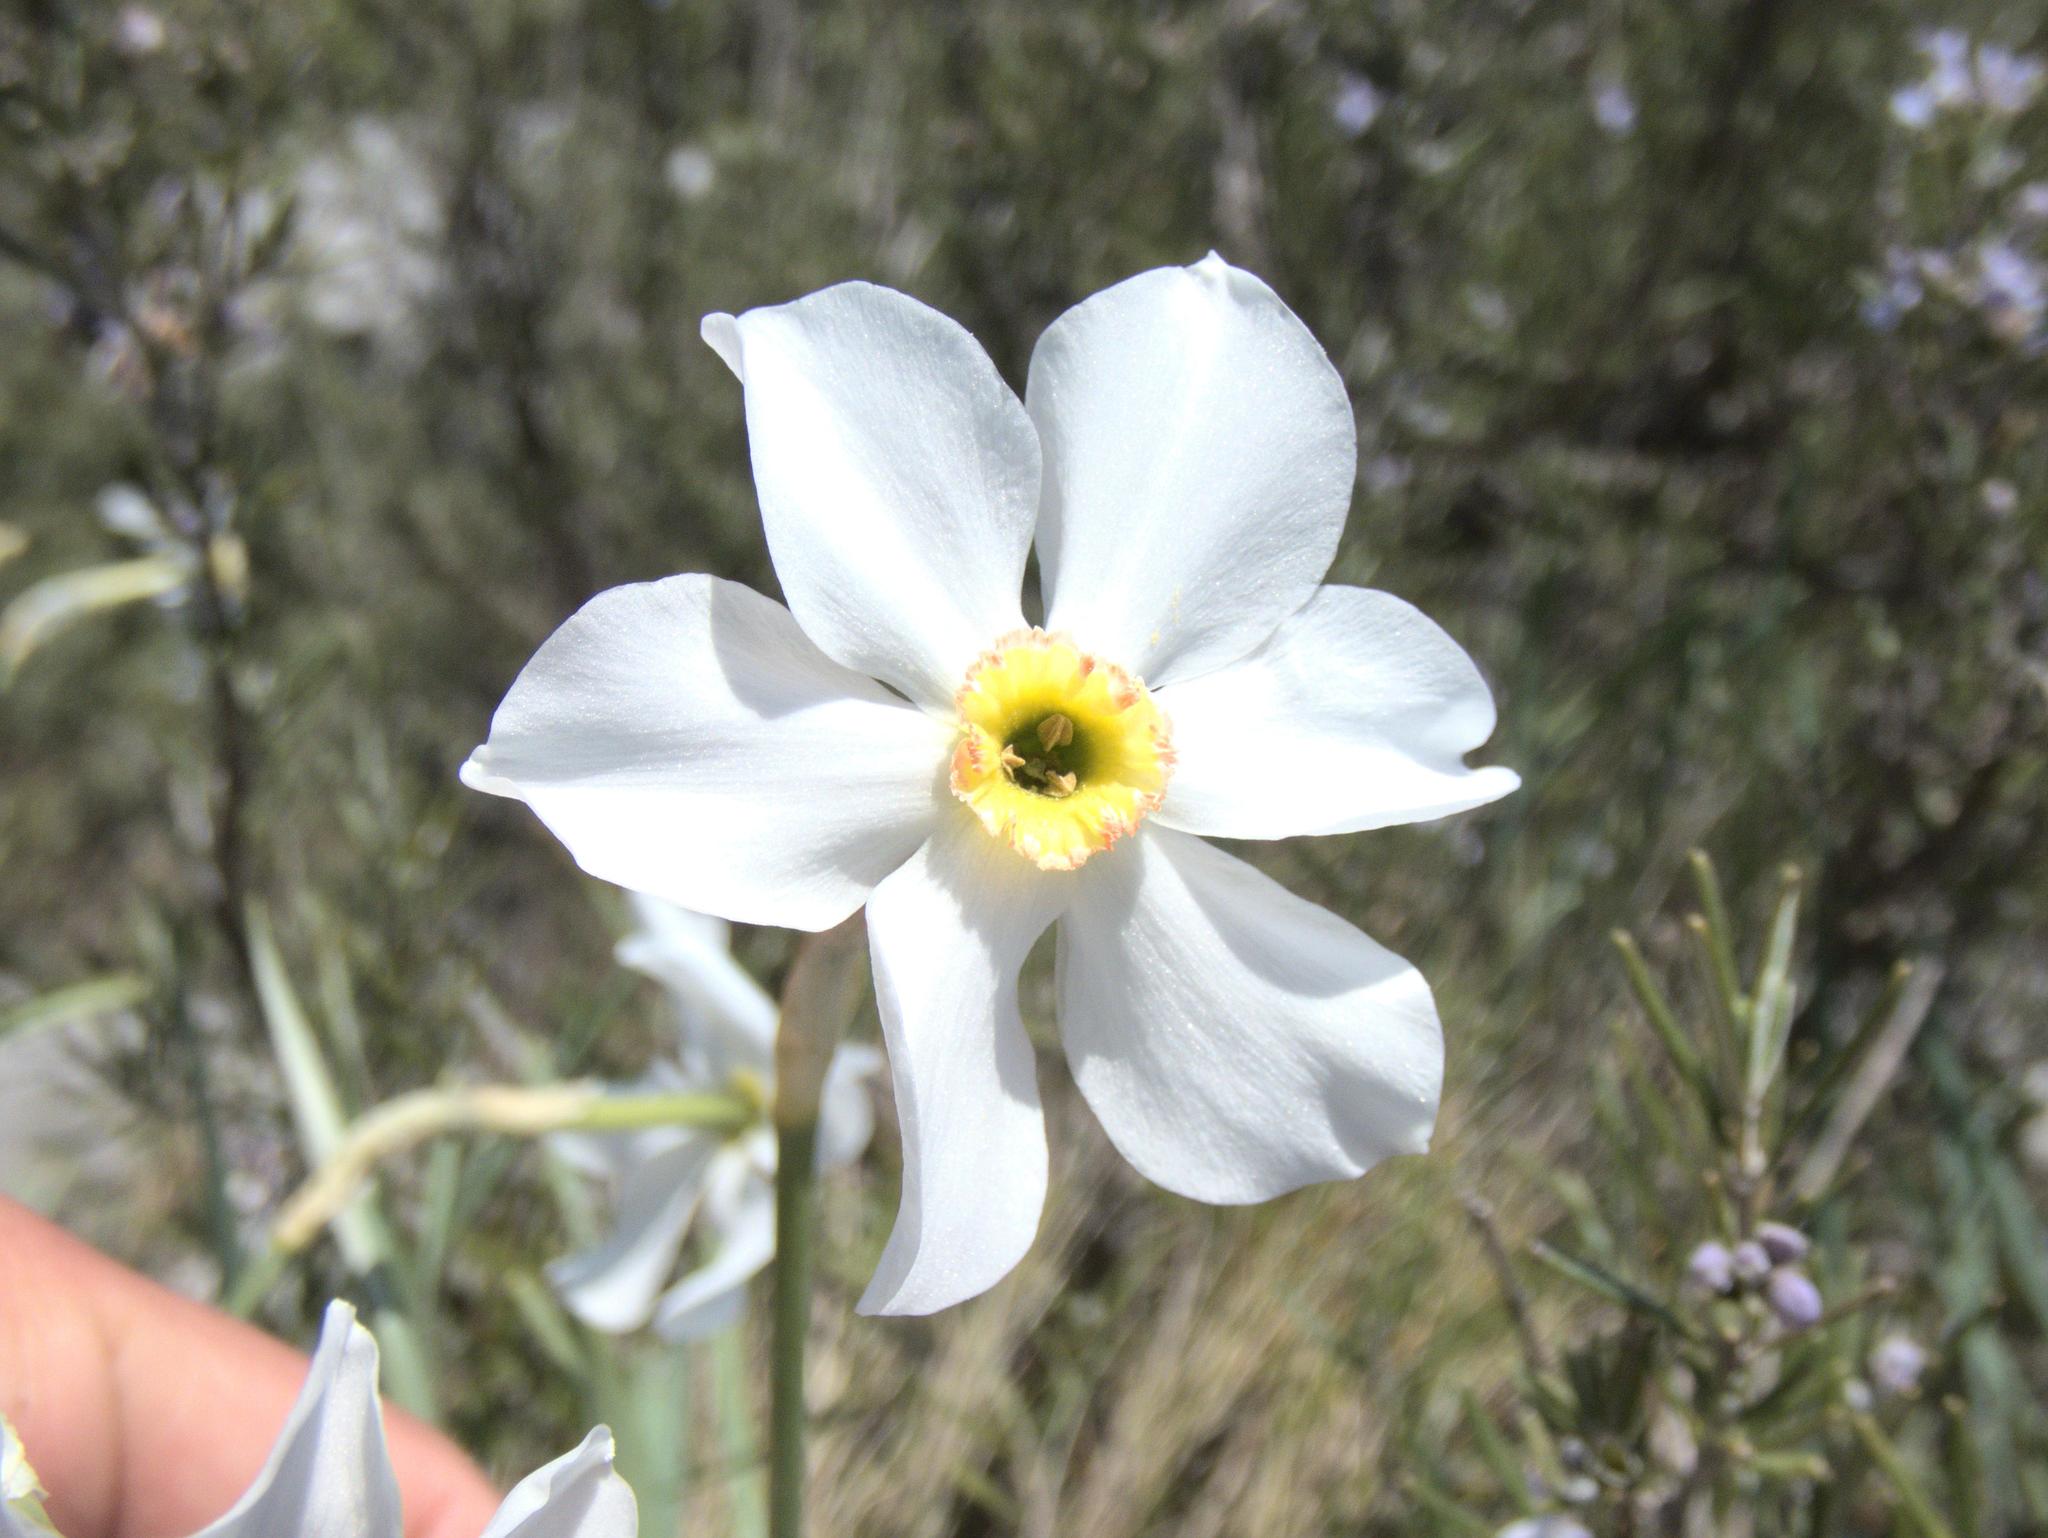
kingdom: Plantae
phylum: Tracheophyta
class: Liliopsida
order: Asparagales
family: Amaryllidaceae
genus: Narcissus
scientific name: Narcissus poeticus
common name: Pheasant's-eye daffodil
